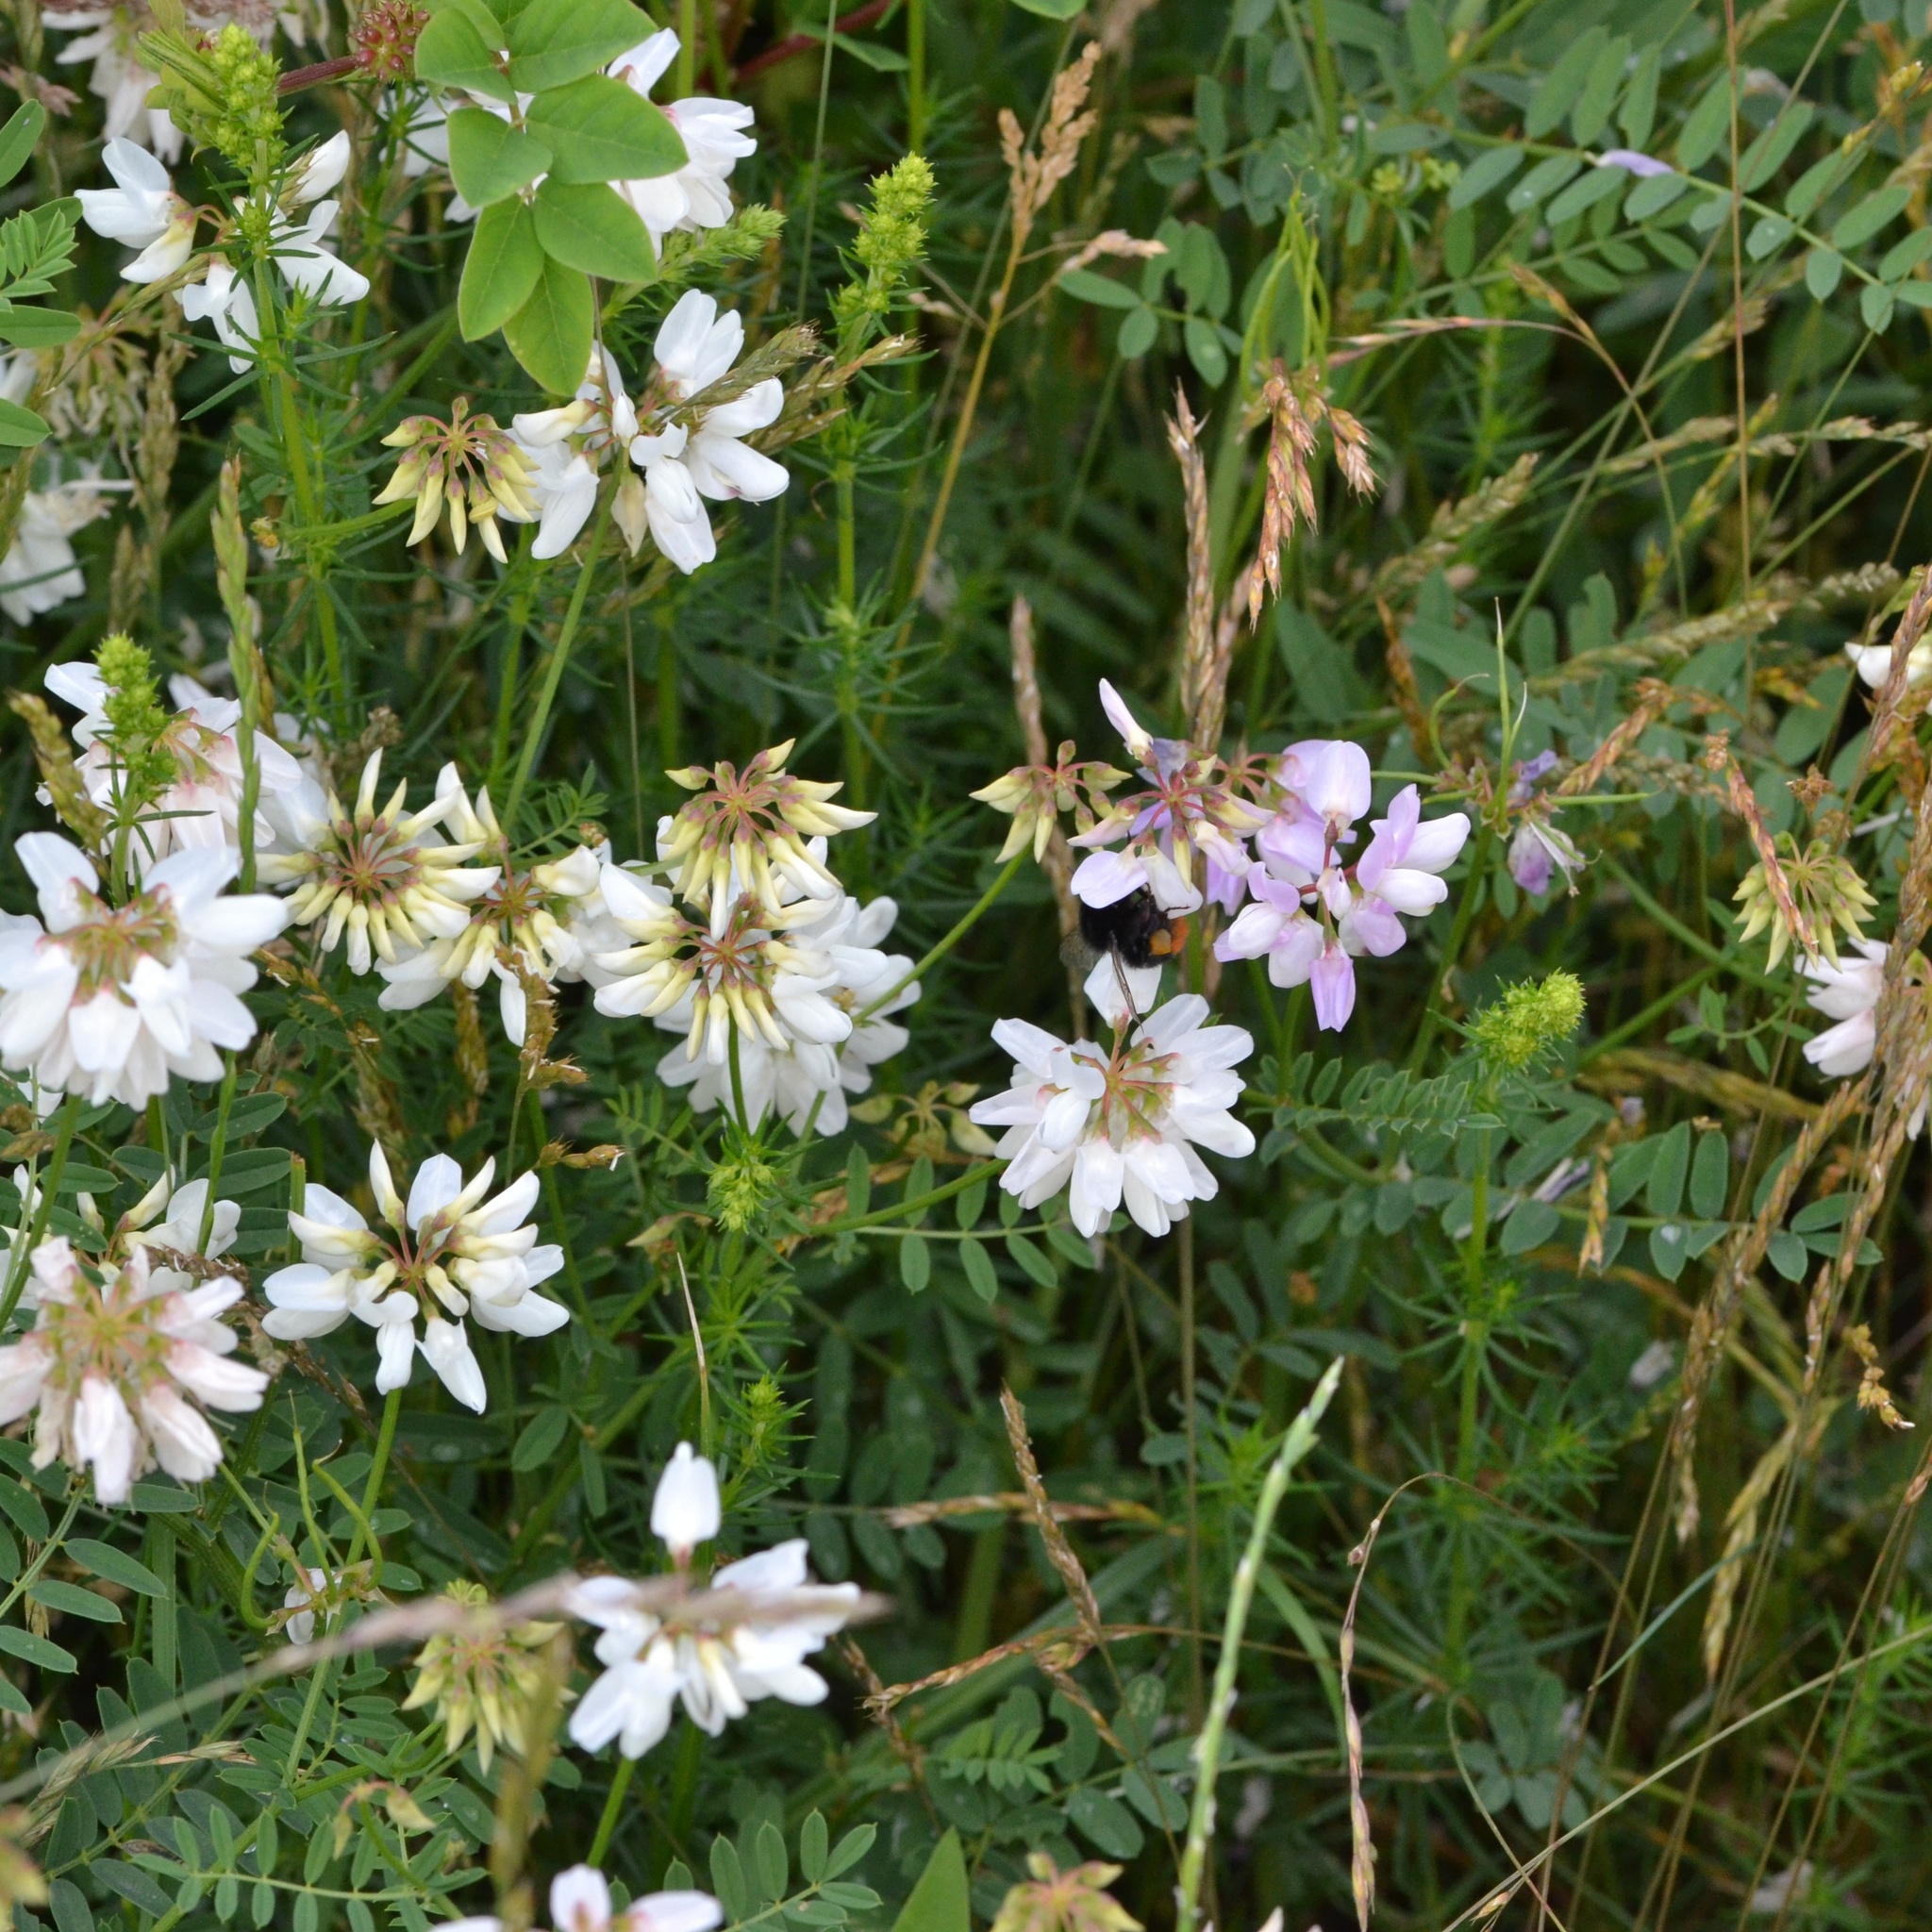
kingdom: Plantae
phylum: Tracheophyta
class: Magnoliopsida
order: Fabales
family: Fabaceae
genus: Coronilla
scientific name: Coronilla varia
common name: Crownvetch
